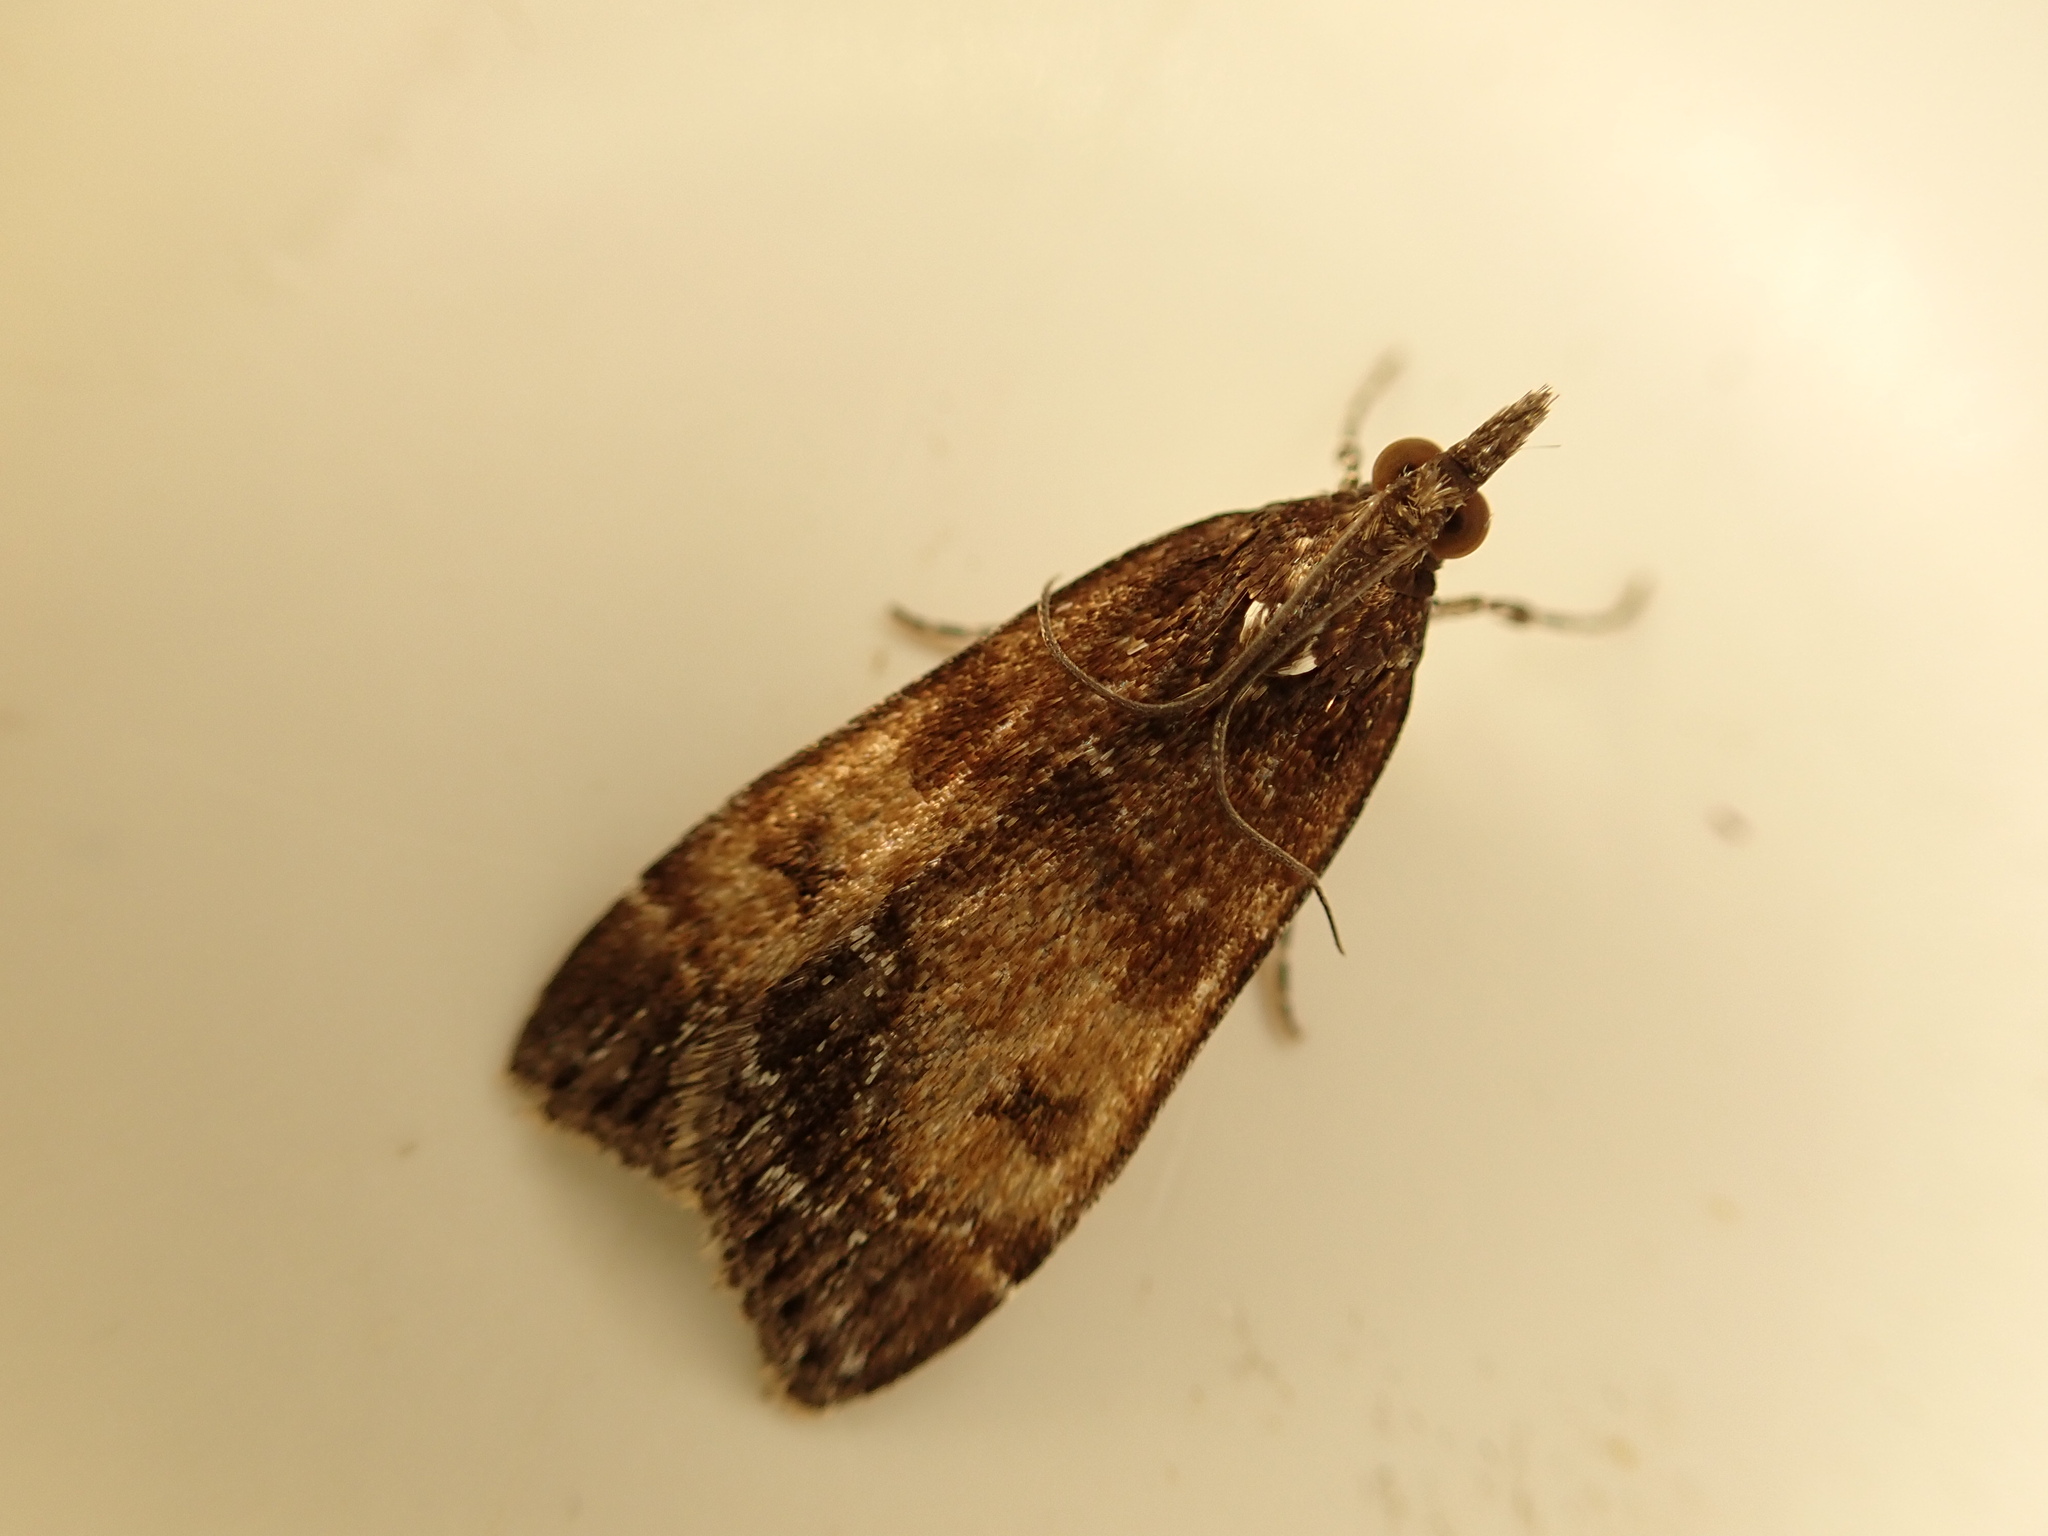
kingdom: Animalia
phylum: Arthropoda
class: Insecta
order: Lepidoptera
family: Crambidae
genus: Eudonia
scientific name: Eudonia asterisca
